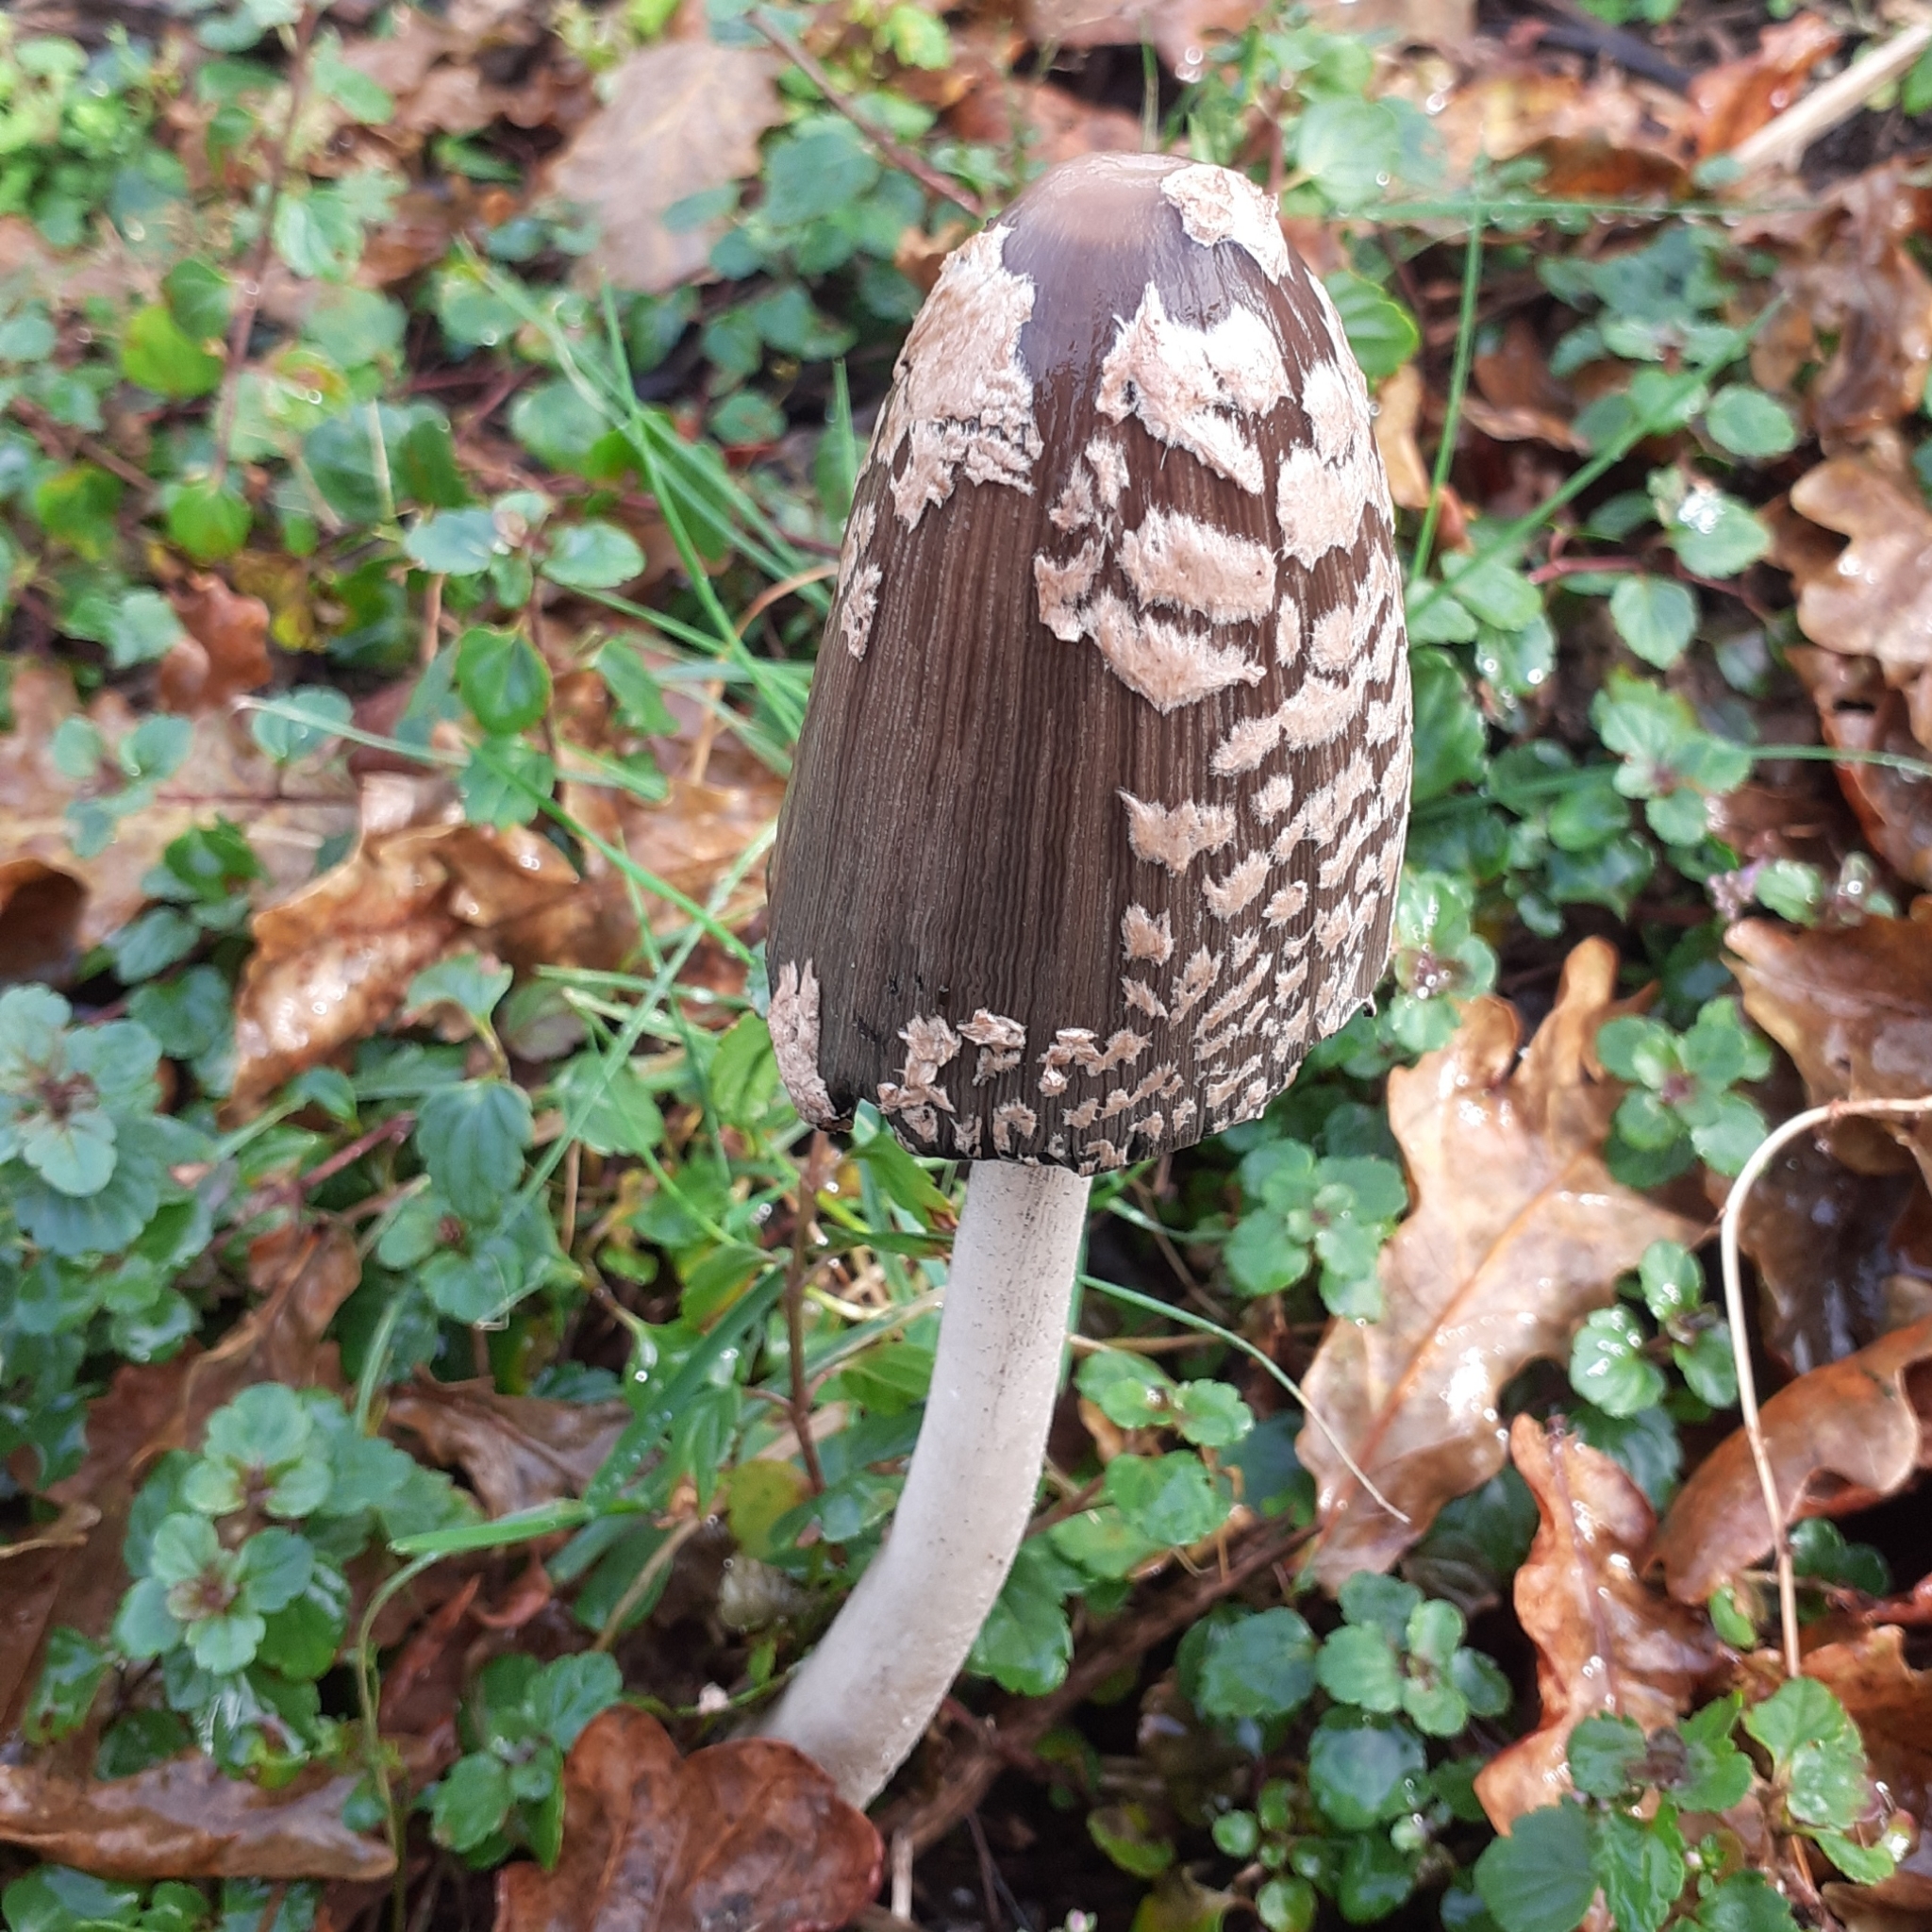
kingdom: Fungi
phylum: Basidiomycota
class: Agaricomycetes
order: Agaricales
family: Psathyrellaceae
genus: Coprinopsis
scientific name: Coprinopsis picacea
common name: Magpie inkcap
